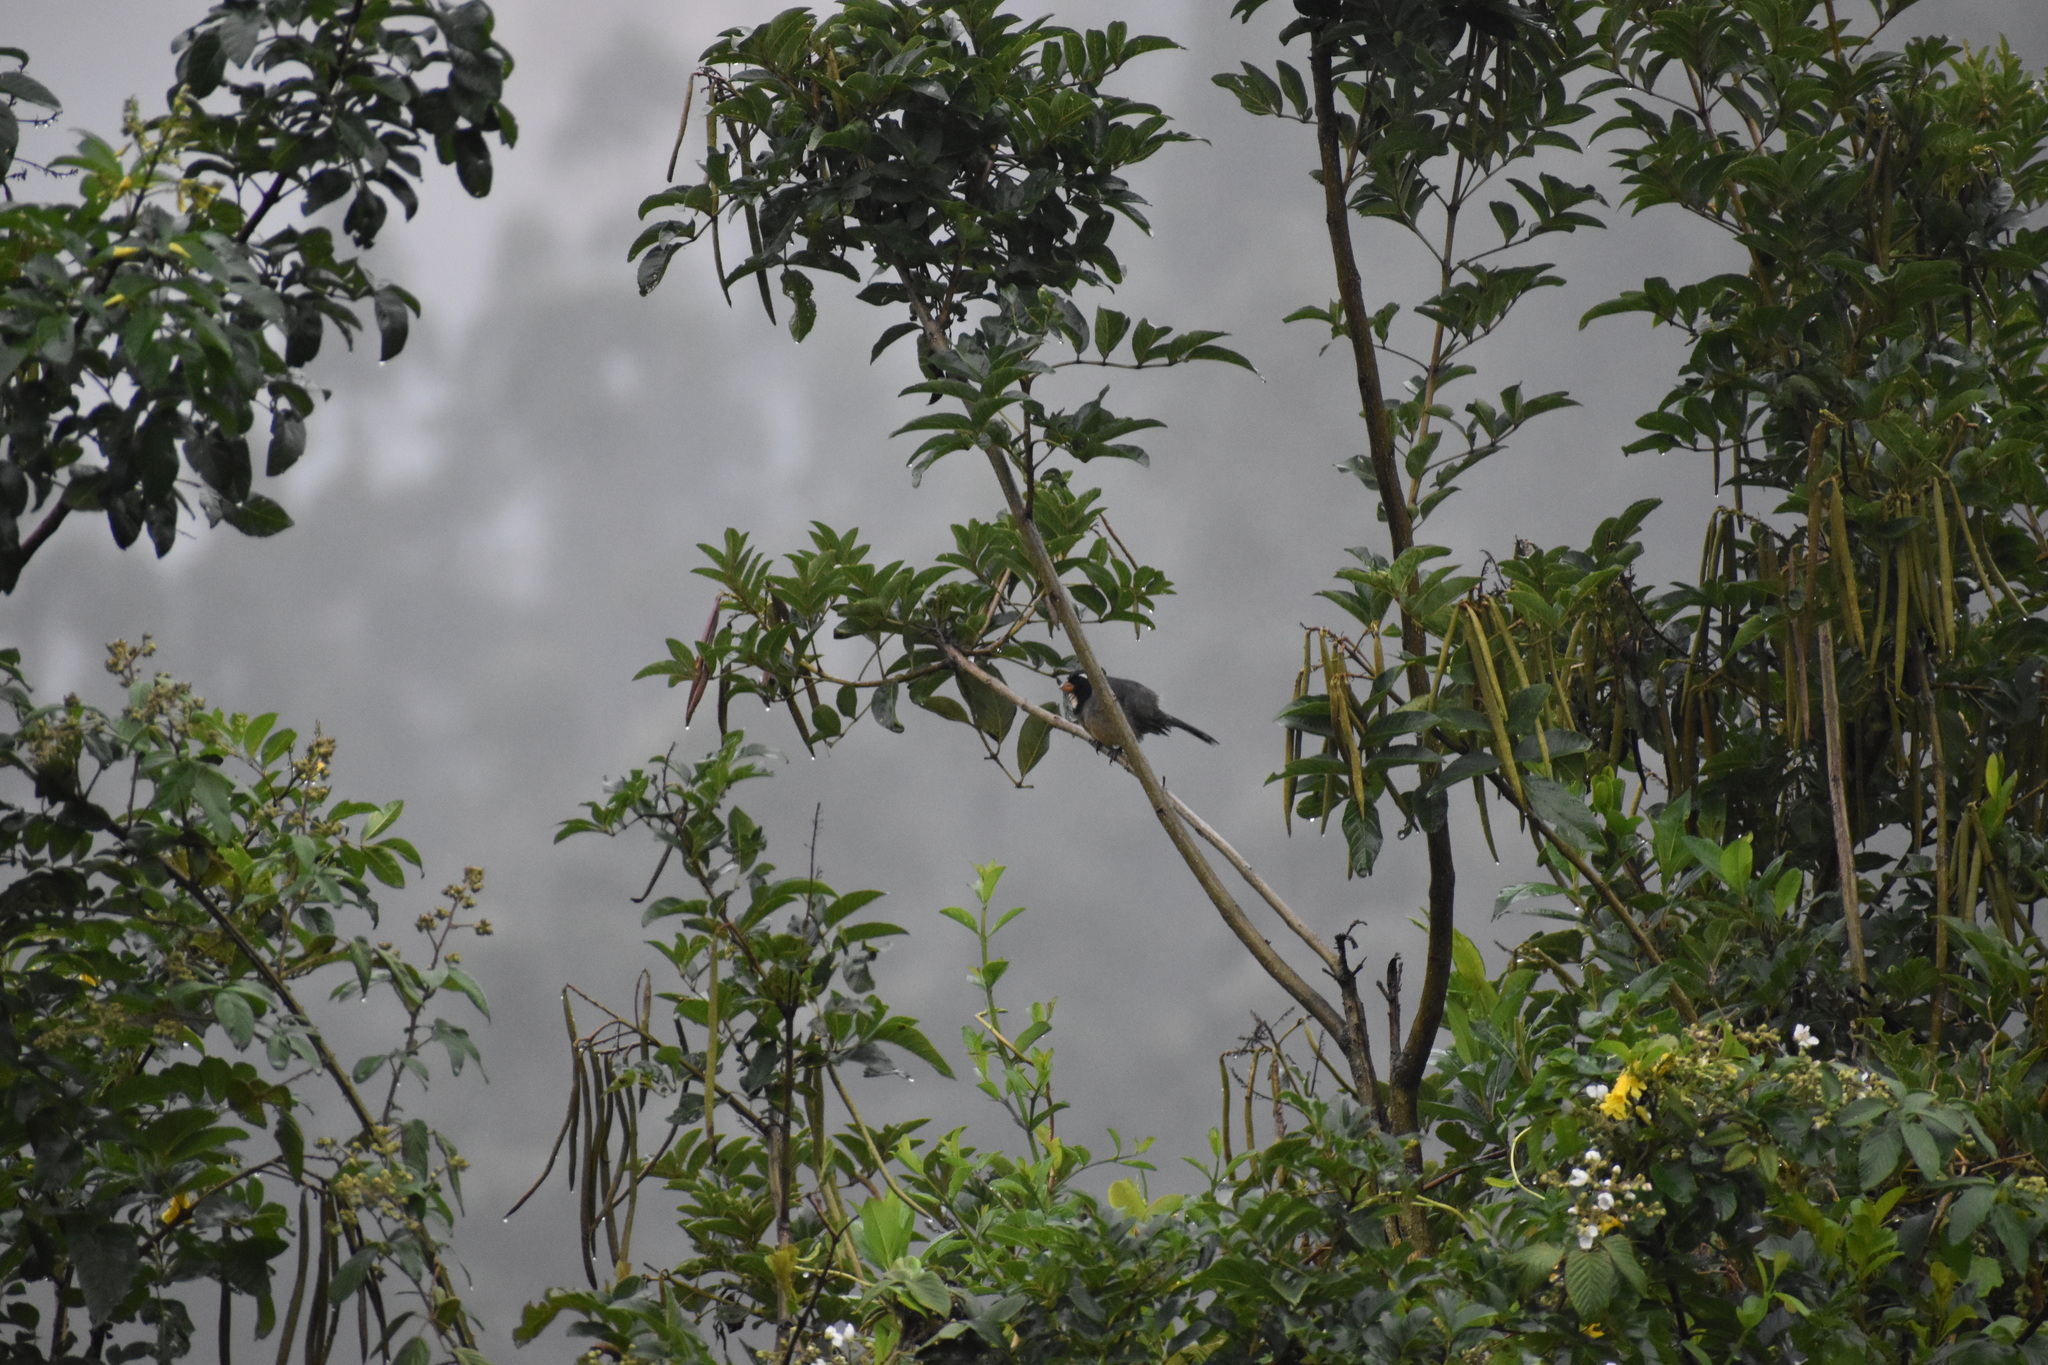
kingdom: Animalia
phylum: Chordata
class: Aves
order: Passeriformes
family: Thraupidae
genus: Saltator
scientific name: Saltator aurantiirostris
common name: Golden-billed saltator
